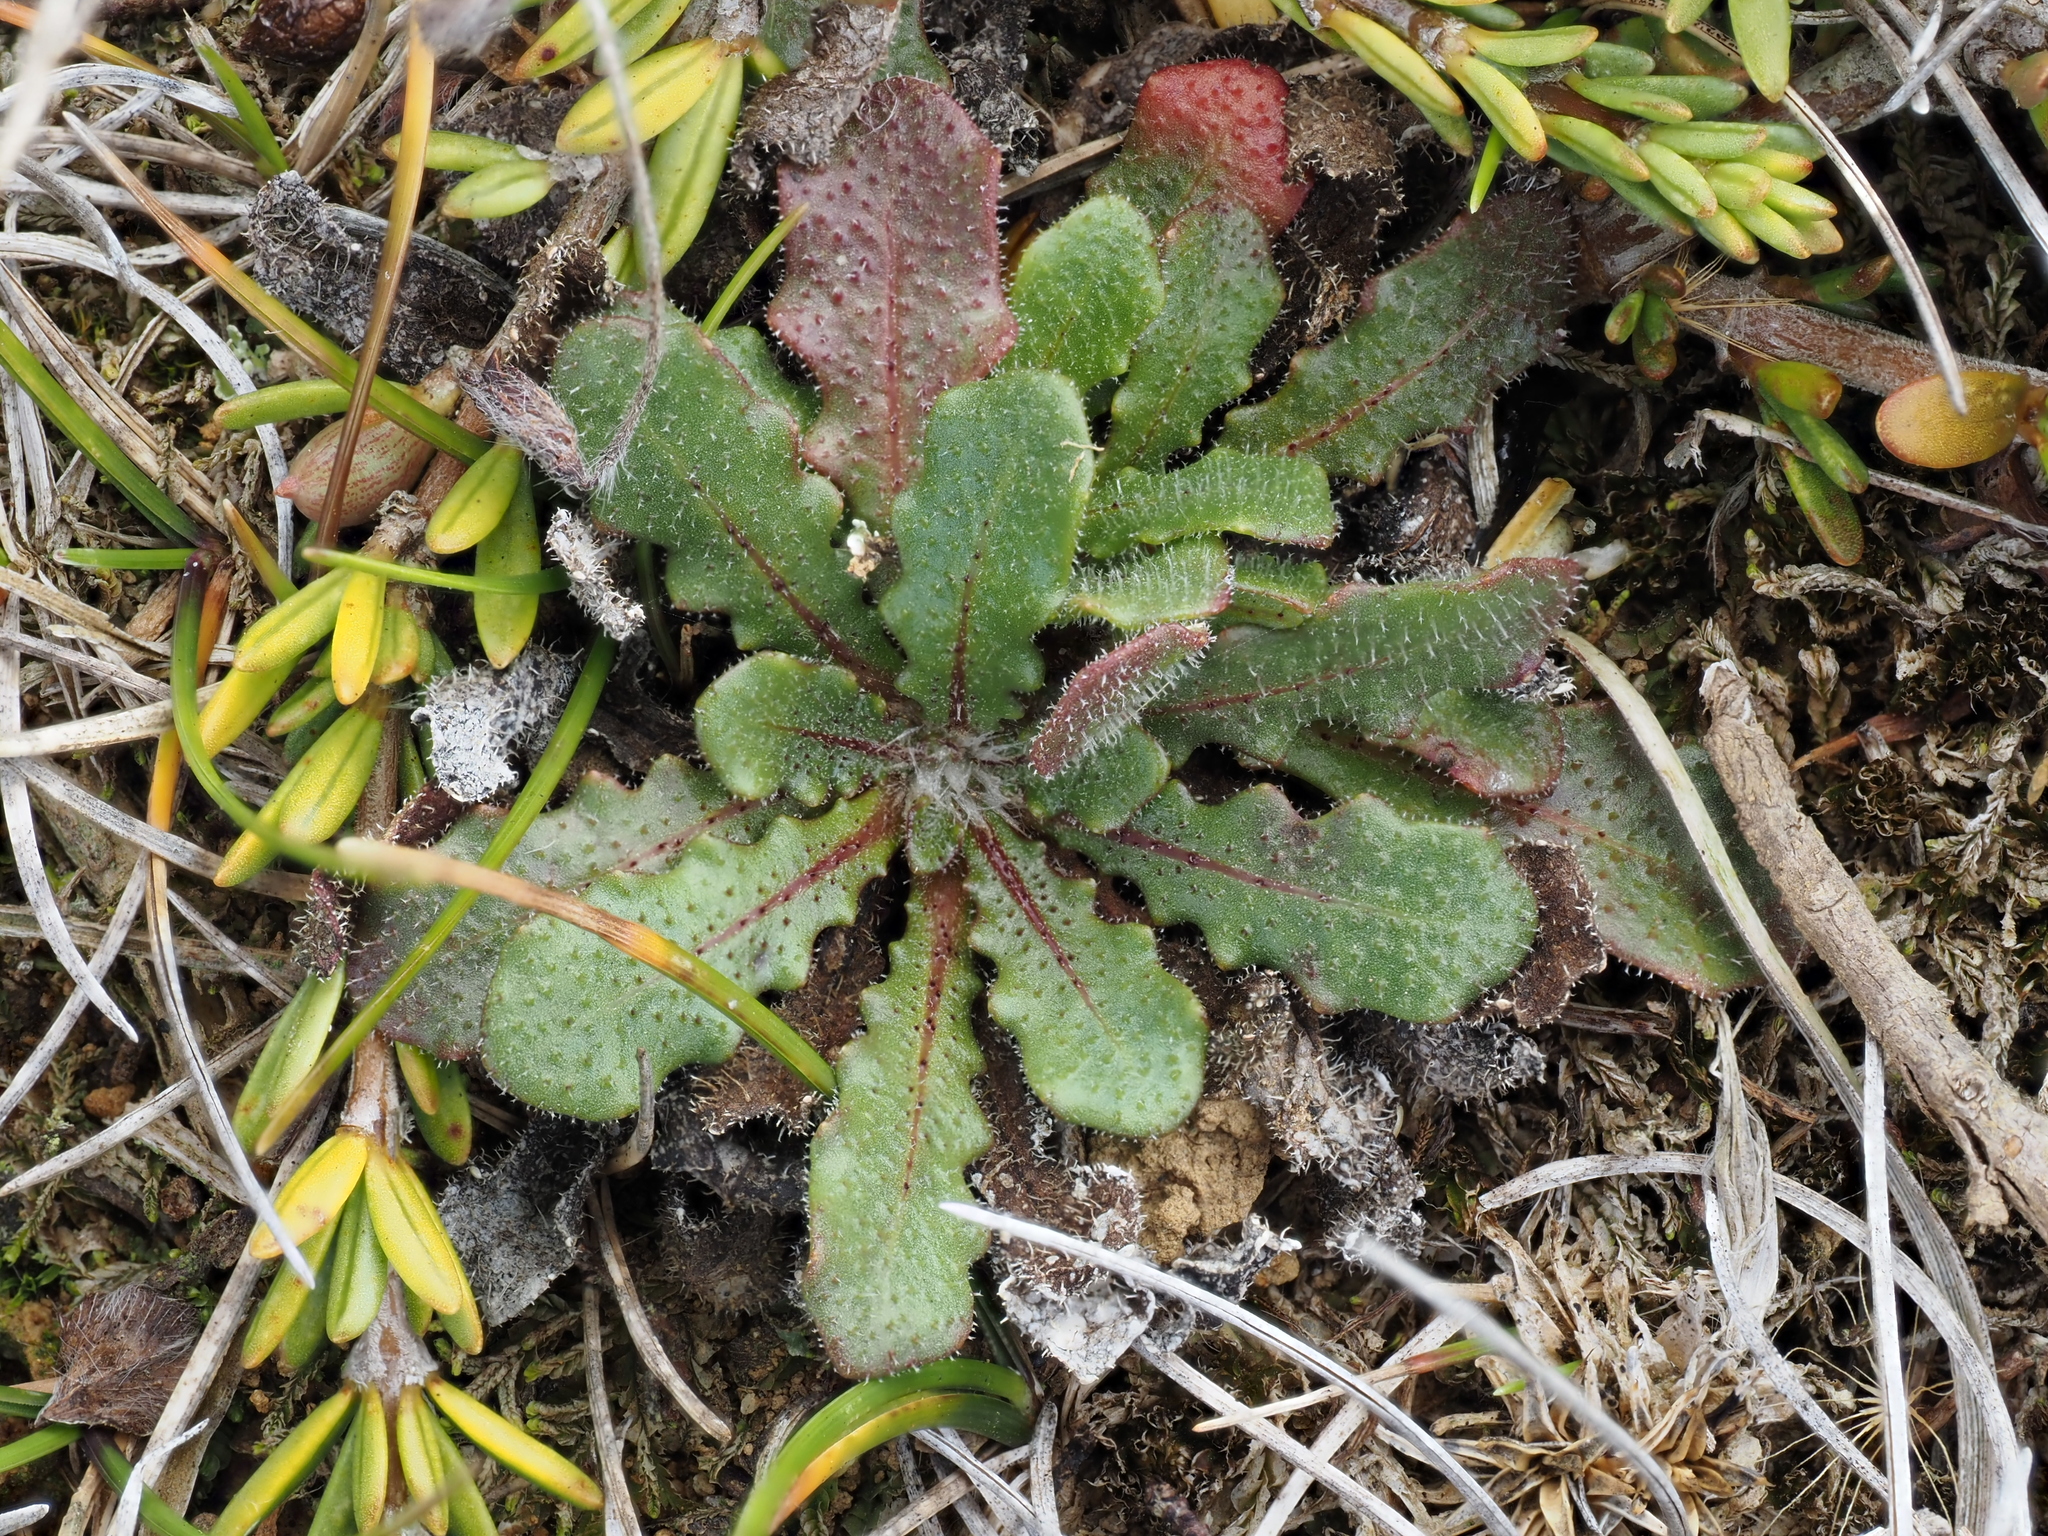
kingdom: Plantae
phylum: Tracheophyta
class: Magnoliopsida
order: Asterales
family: Asteraceae
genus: Hypochaeris
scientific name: Hypochaeris radicata
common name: Flatweed
